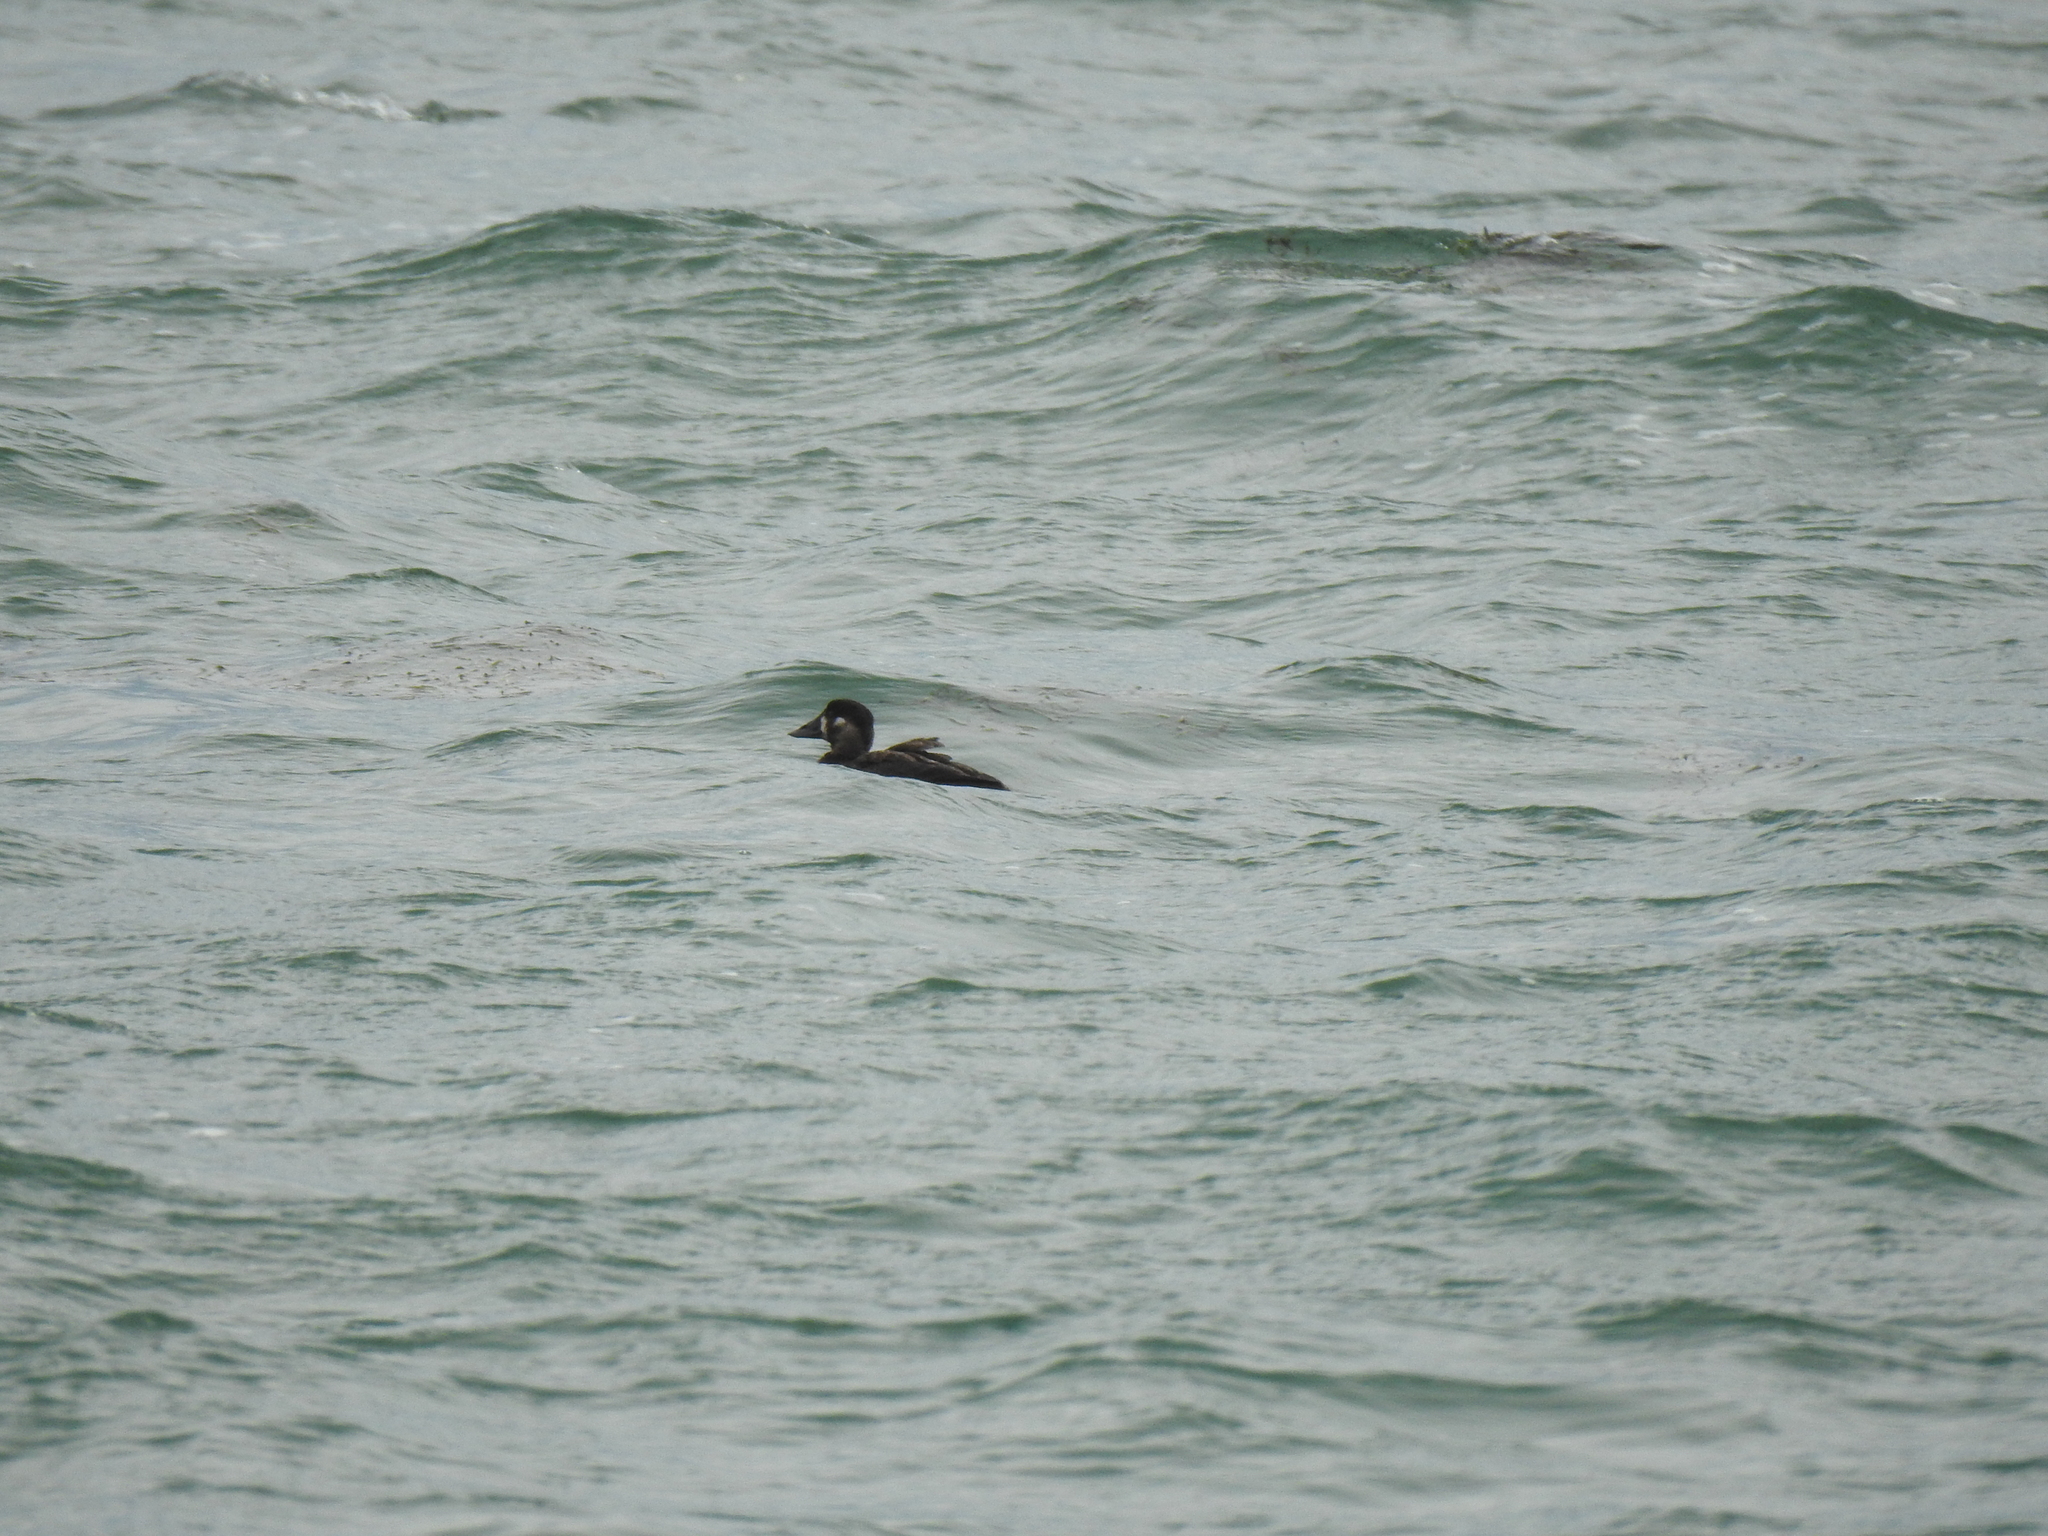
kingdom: Animalia
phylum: Chordata
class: Aves
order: Anseriformes
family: Anatidae
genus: Melanitta
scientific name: Melanitta perspicillata
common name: Surf scoter
